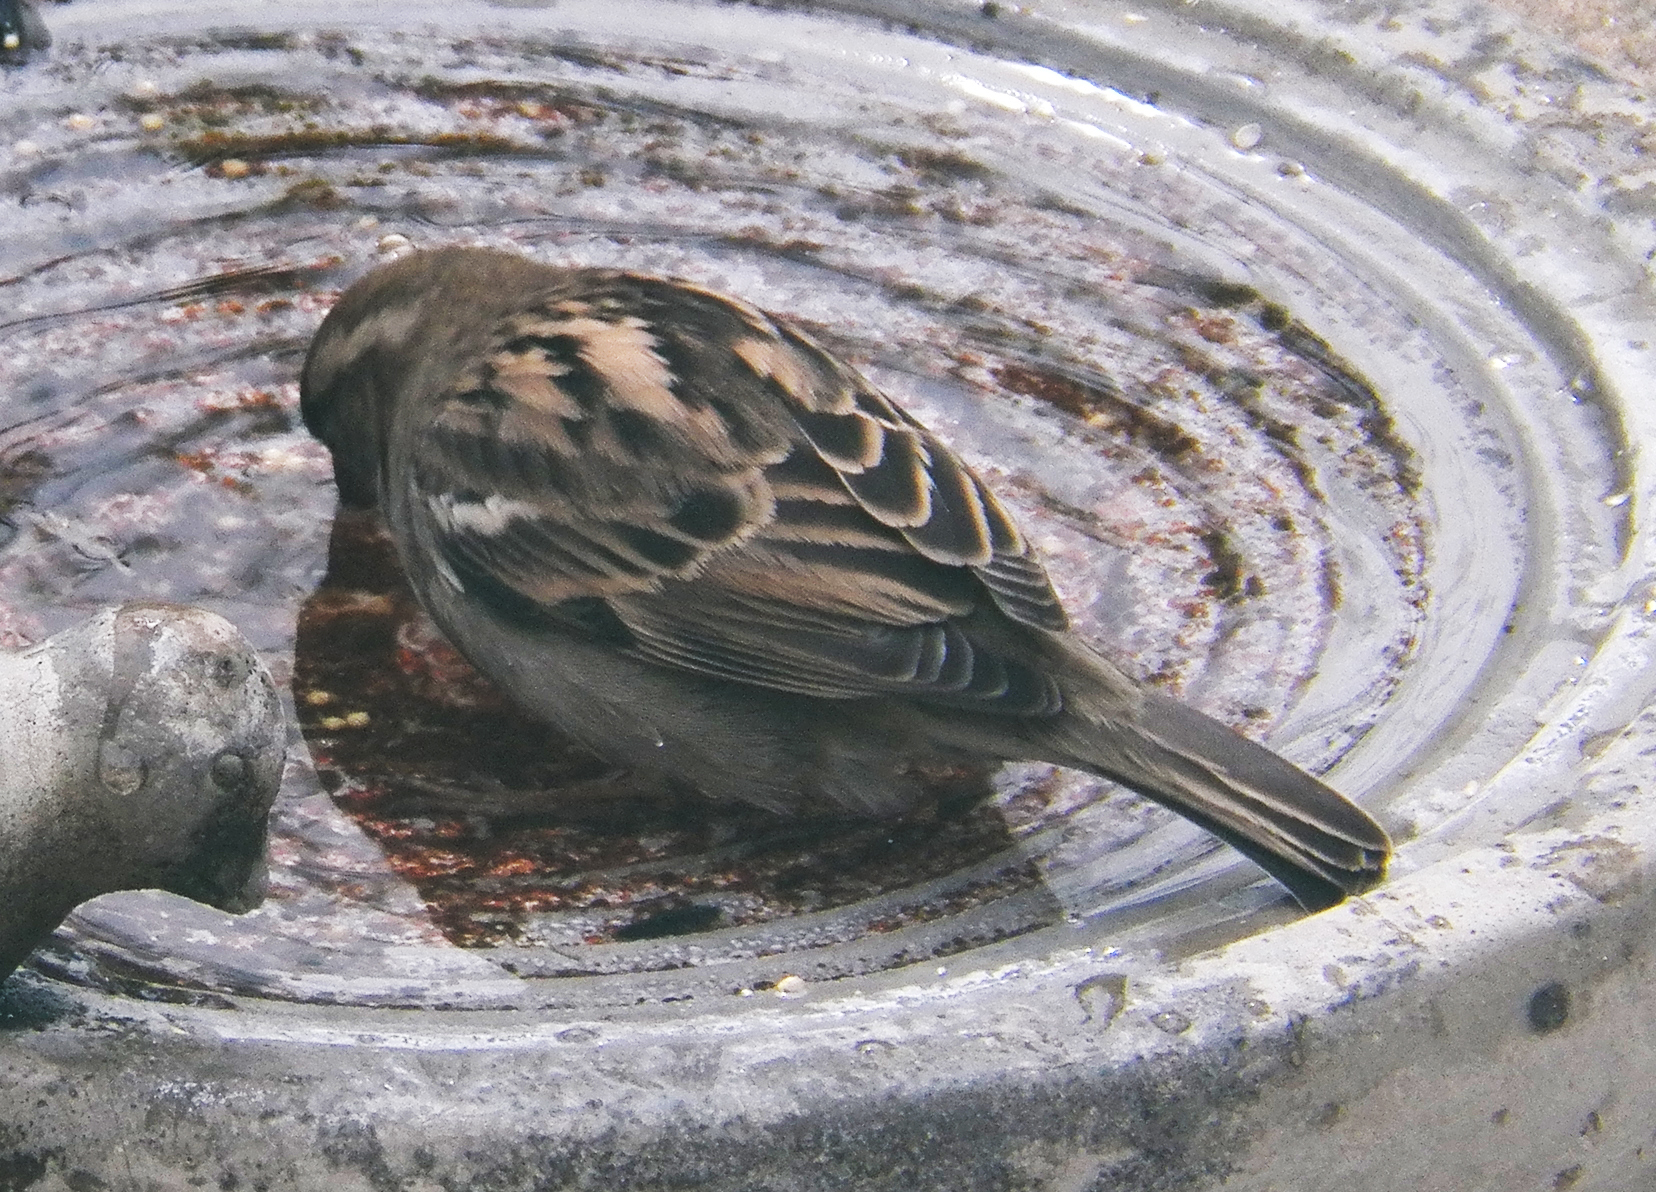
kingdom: Animalia
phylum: Chordata
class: Aves
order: Passeriformes
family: Passeridae
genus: Passer
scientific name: Passer domesticus
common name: House sparrow
